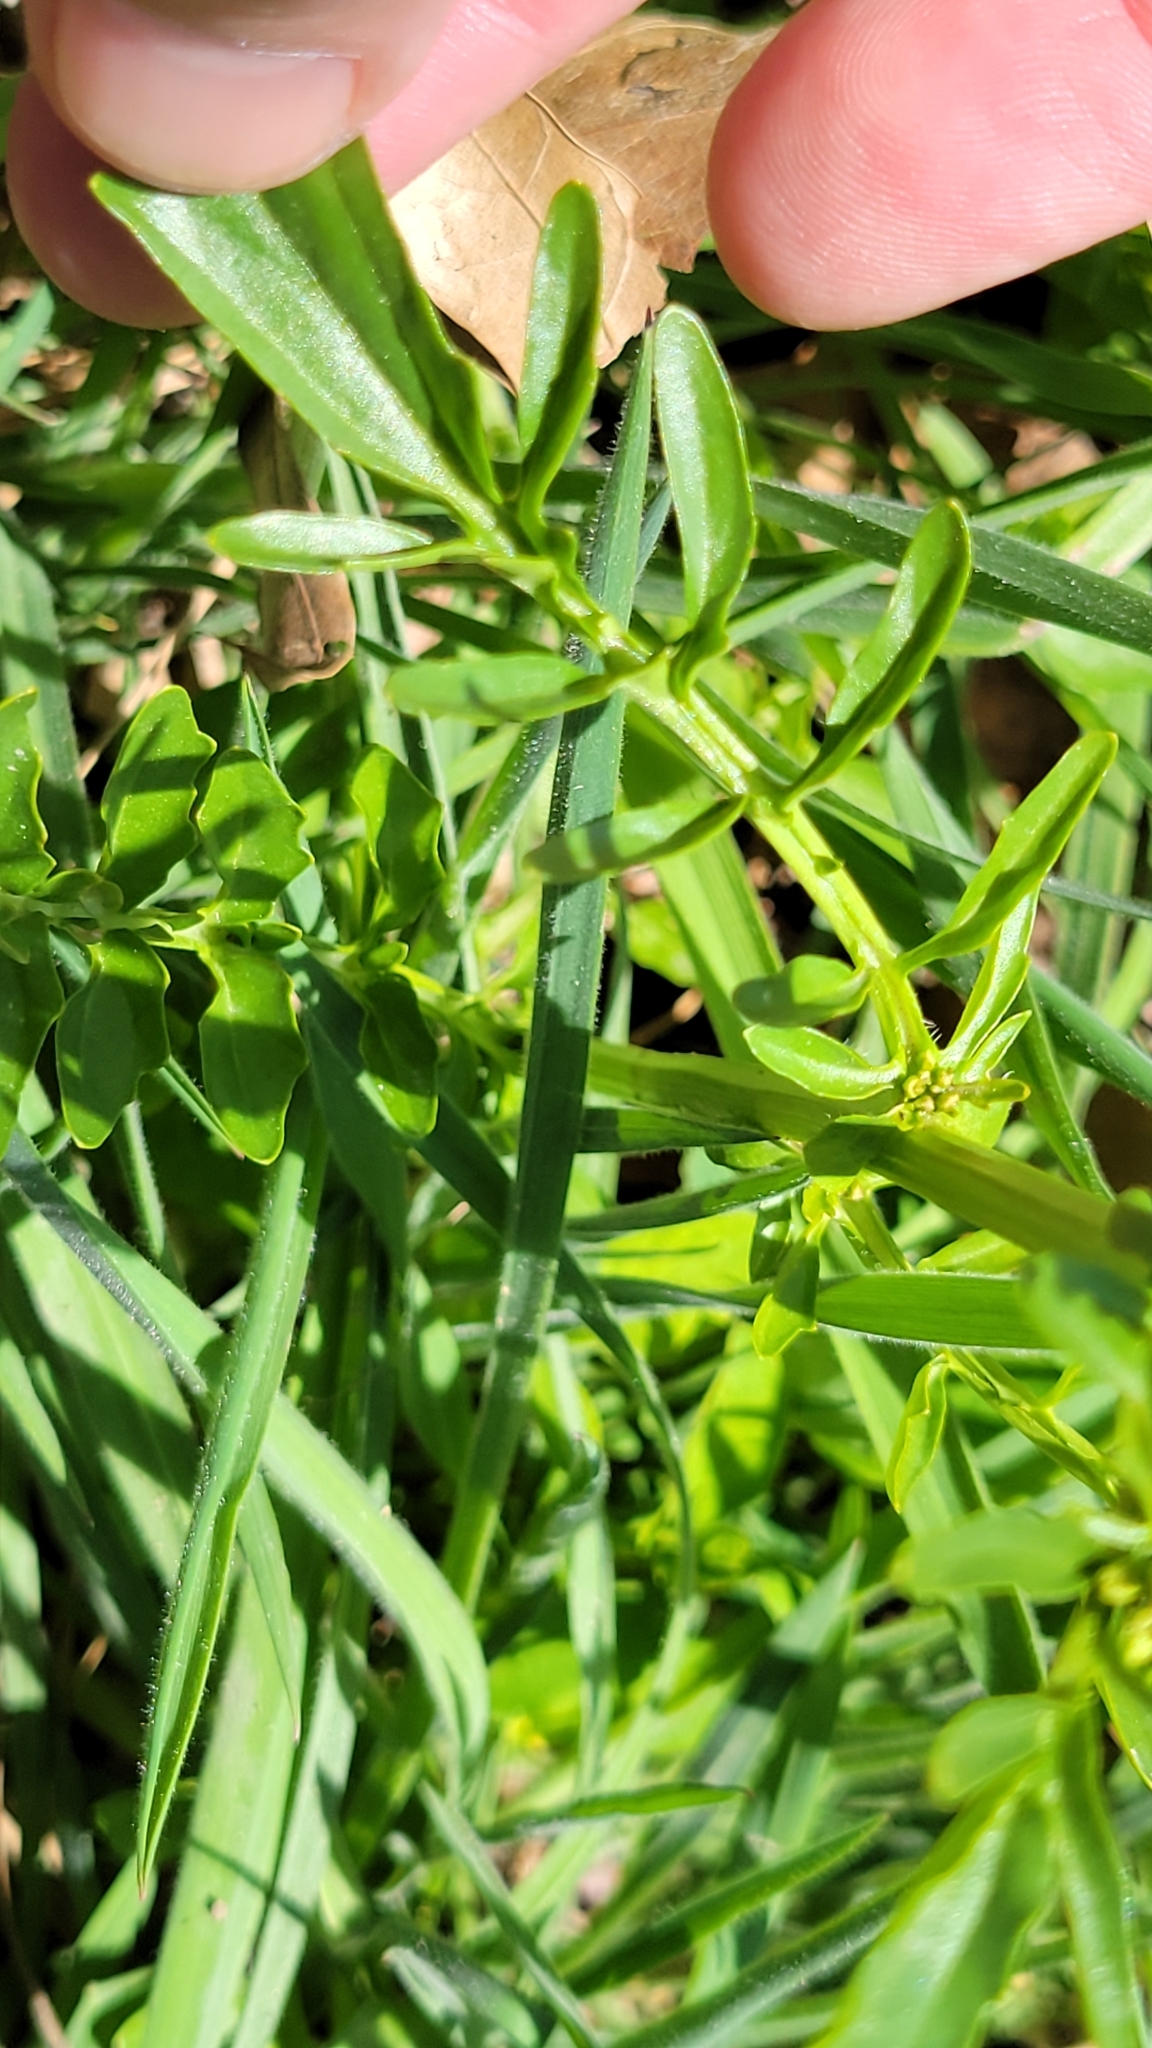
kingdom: Plantae
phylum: Tracheophyta
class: Magnoliopsida
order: Brassicales
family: Brassicaceae
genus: Barbarea
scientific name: Barbarea verna
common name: American cress
